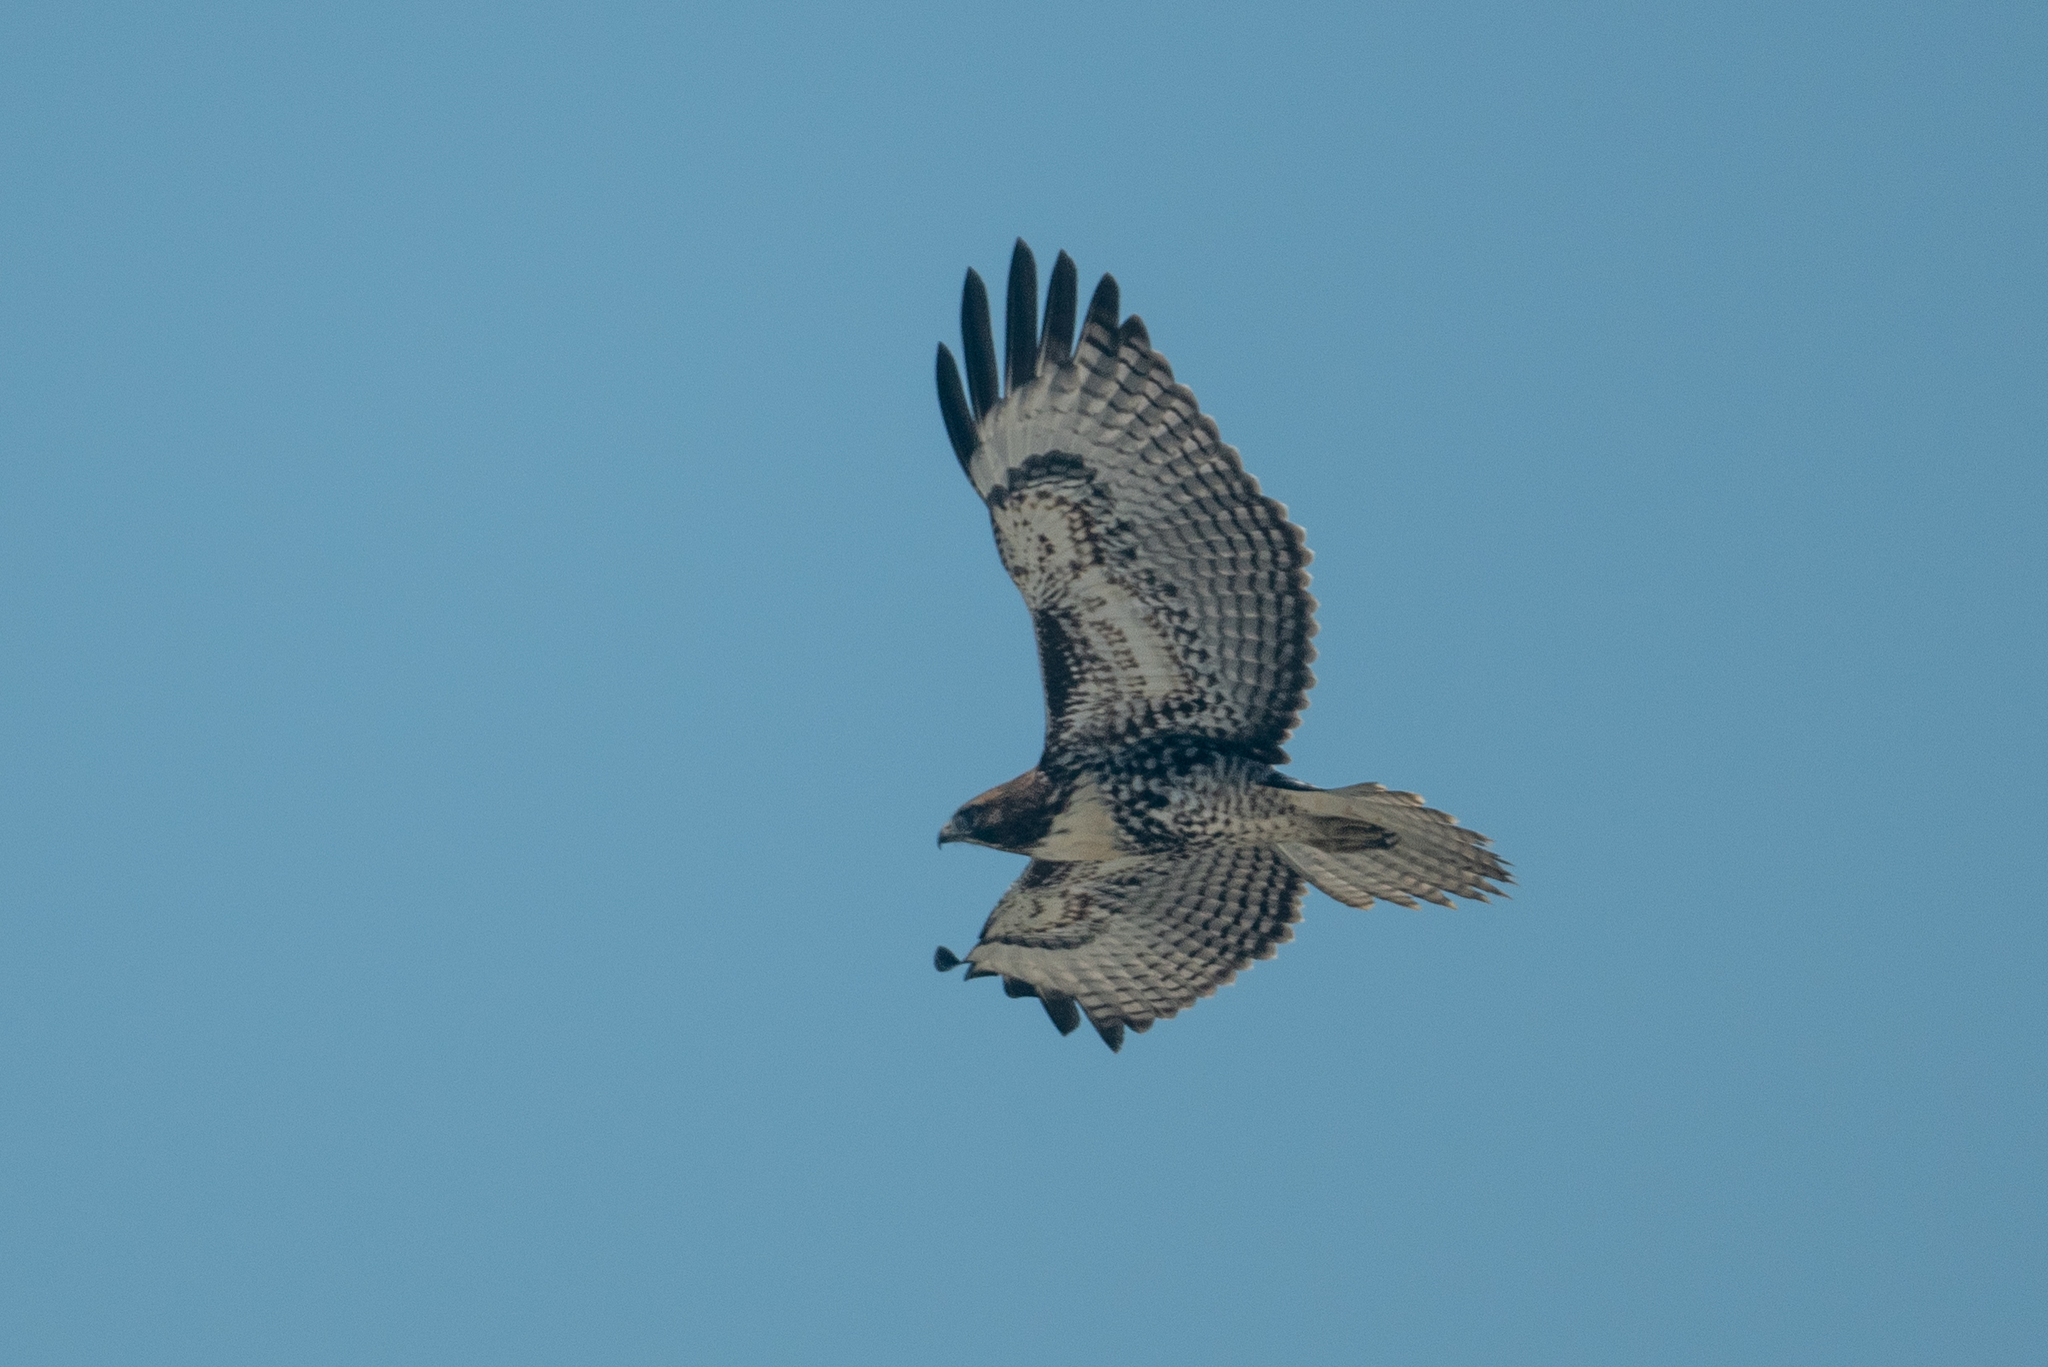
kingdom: Animalia
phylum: Chordata
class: Aves
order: Accipitriformes
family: Accipitridae
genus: Buteo
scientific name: Buteo jamaicensis
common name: Red-tailed hawk
